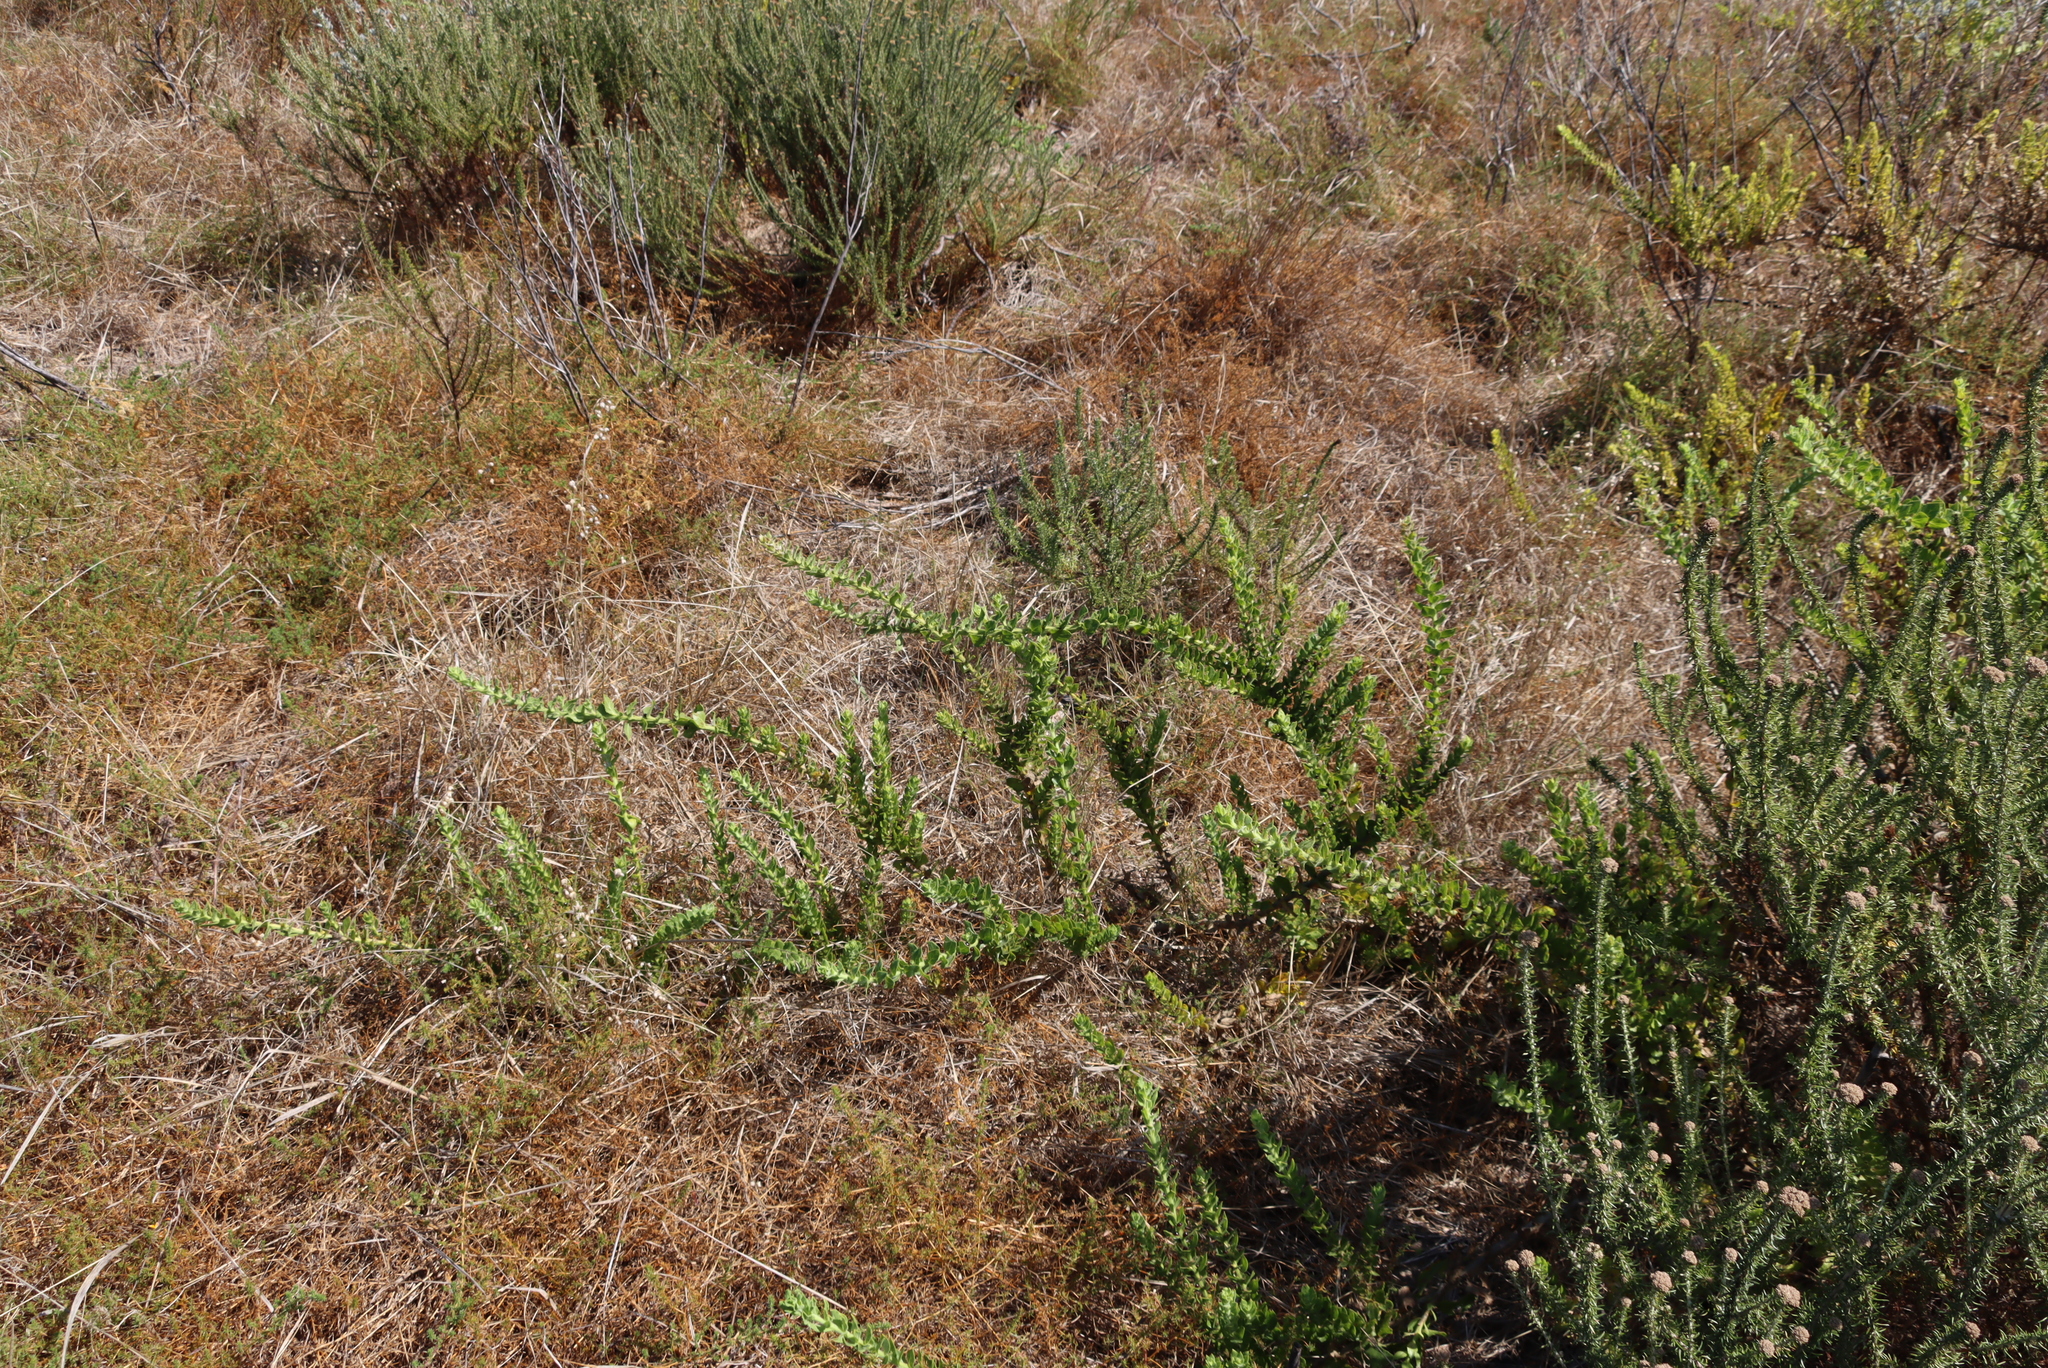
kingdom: Plantae
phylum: Tracheophyta
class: Magnoliopsida
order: Lamiales
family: Scrophulariaceae
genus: Oftia
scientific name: Oftia africana
